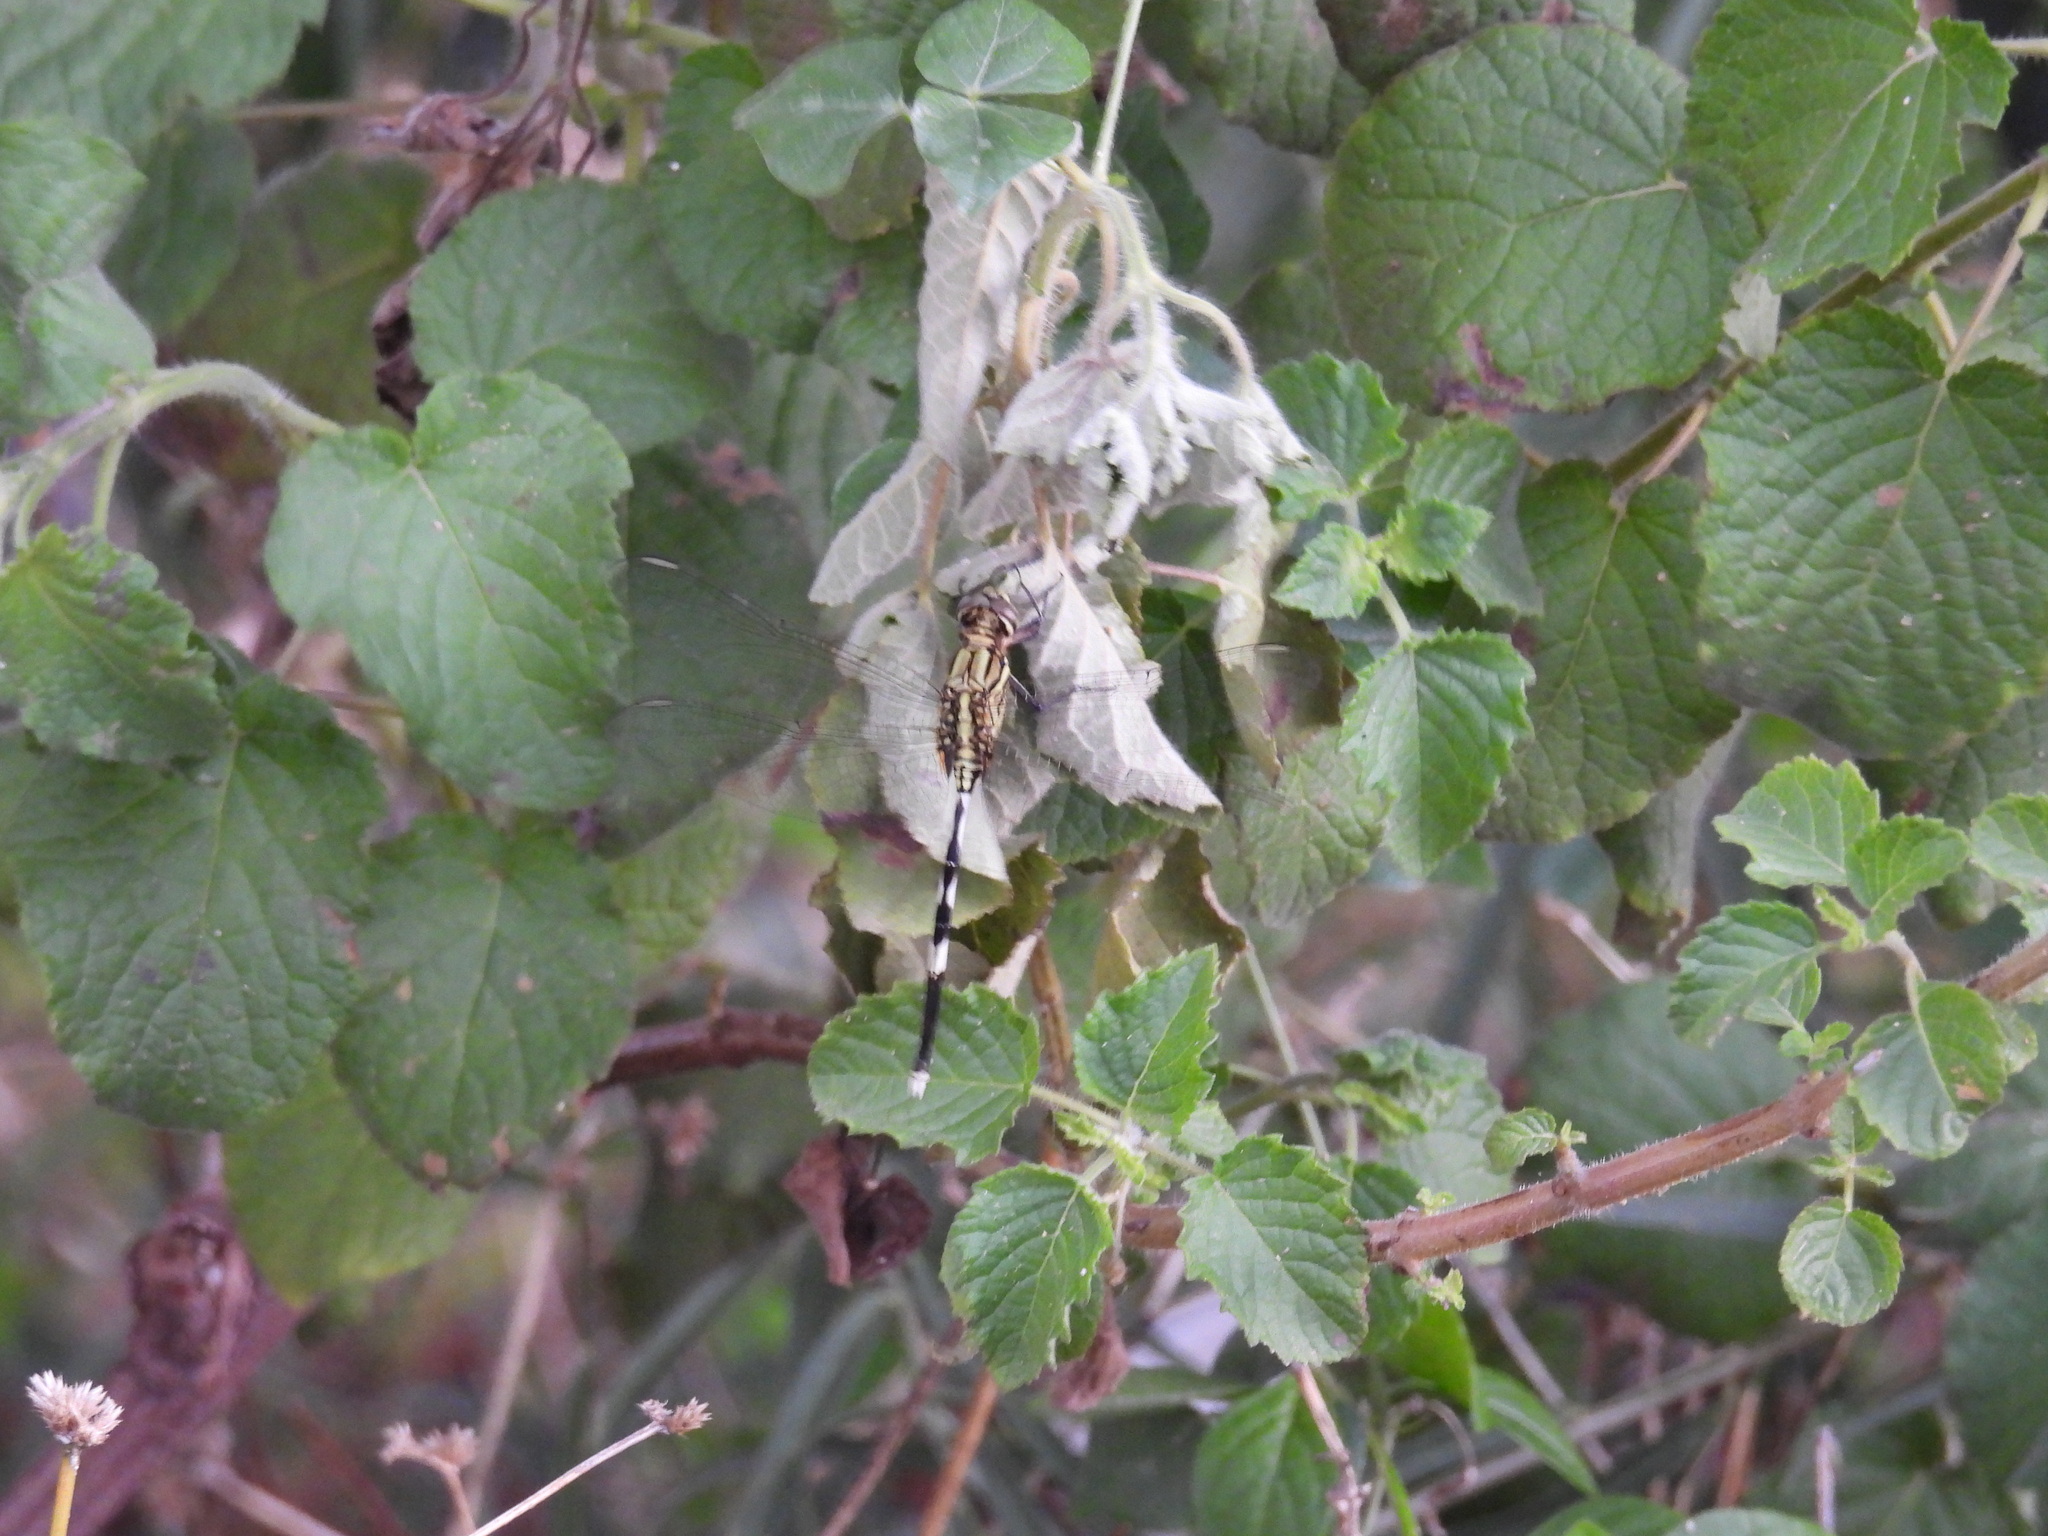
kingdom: Animalia
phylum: Arthropoda
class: Insecta
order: Odonata
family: Libellulidae
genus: Orthetrum
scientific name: Orthetrum sabina
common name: Slender skimmer
